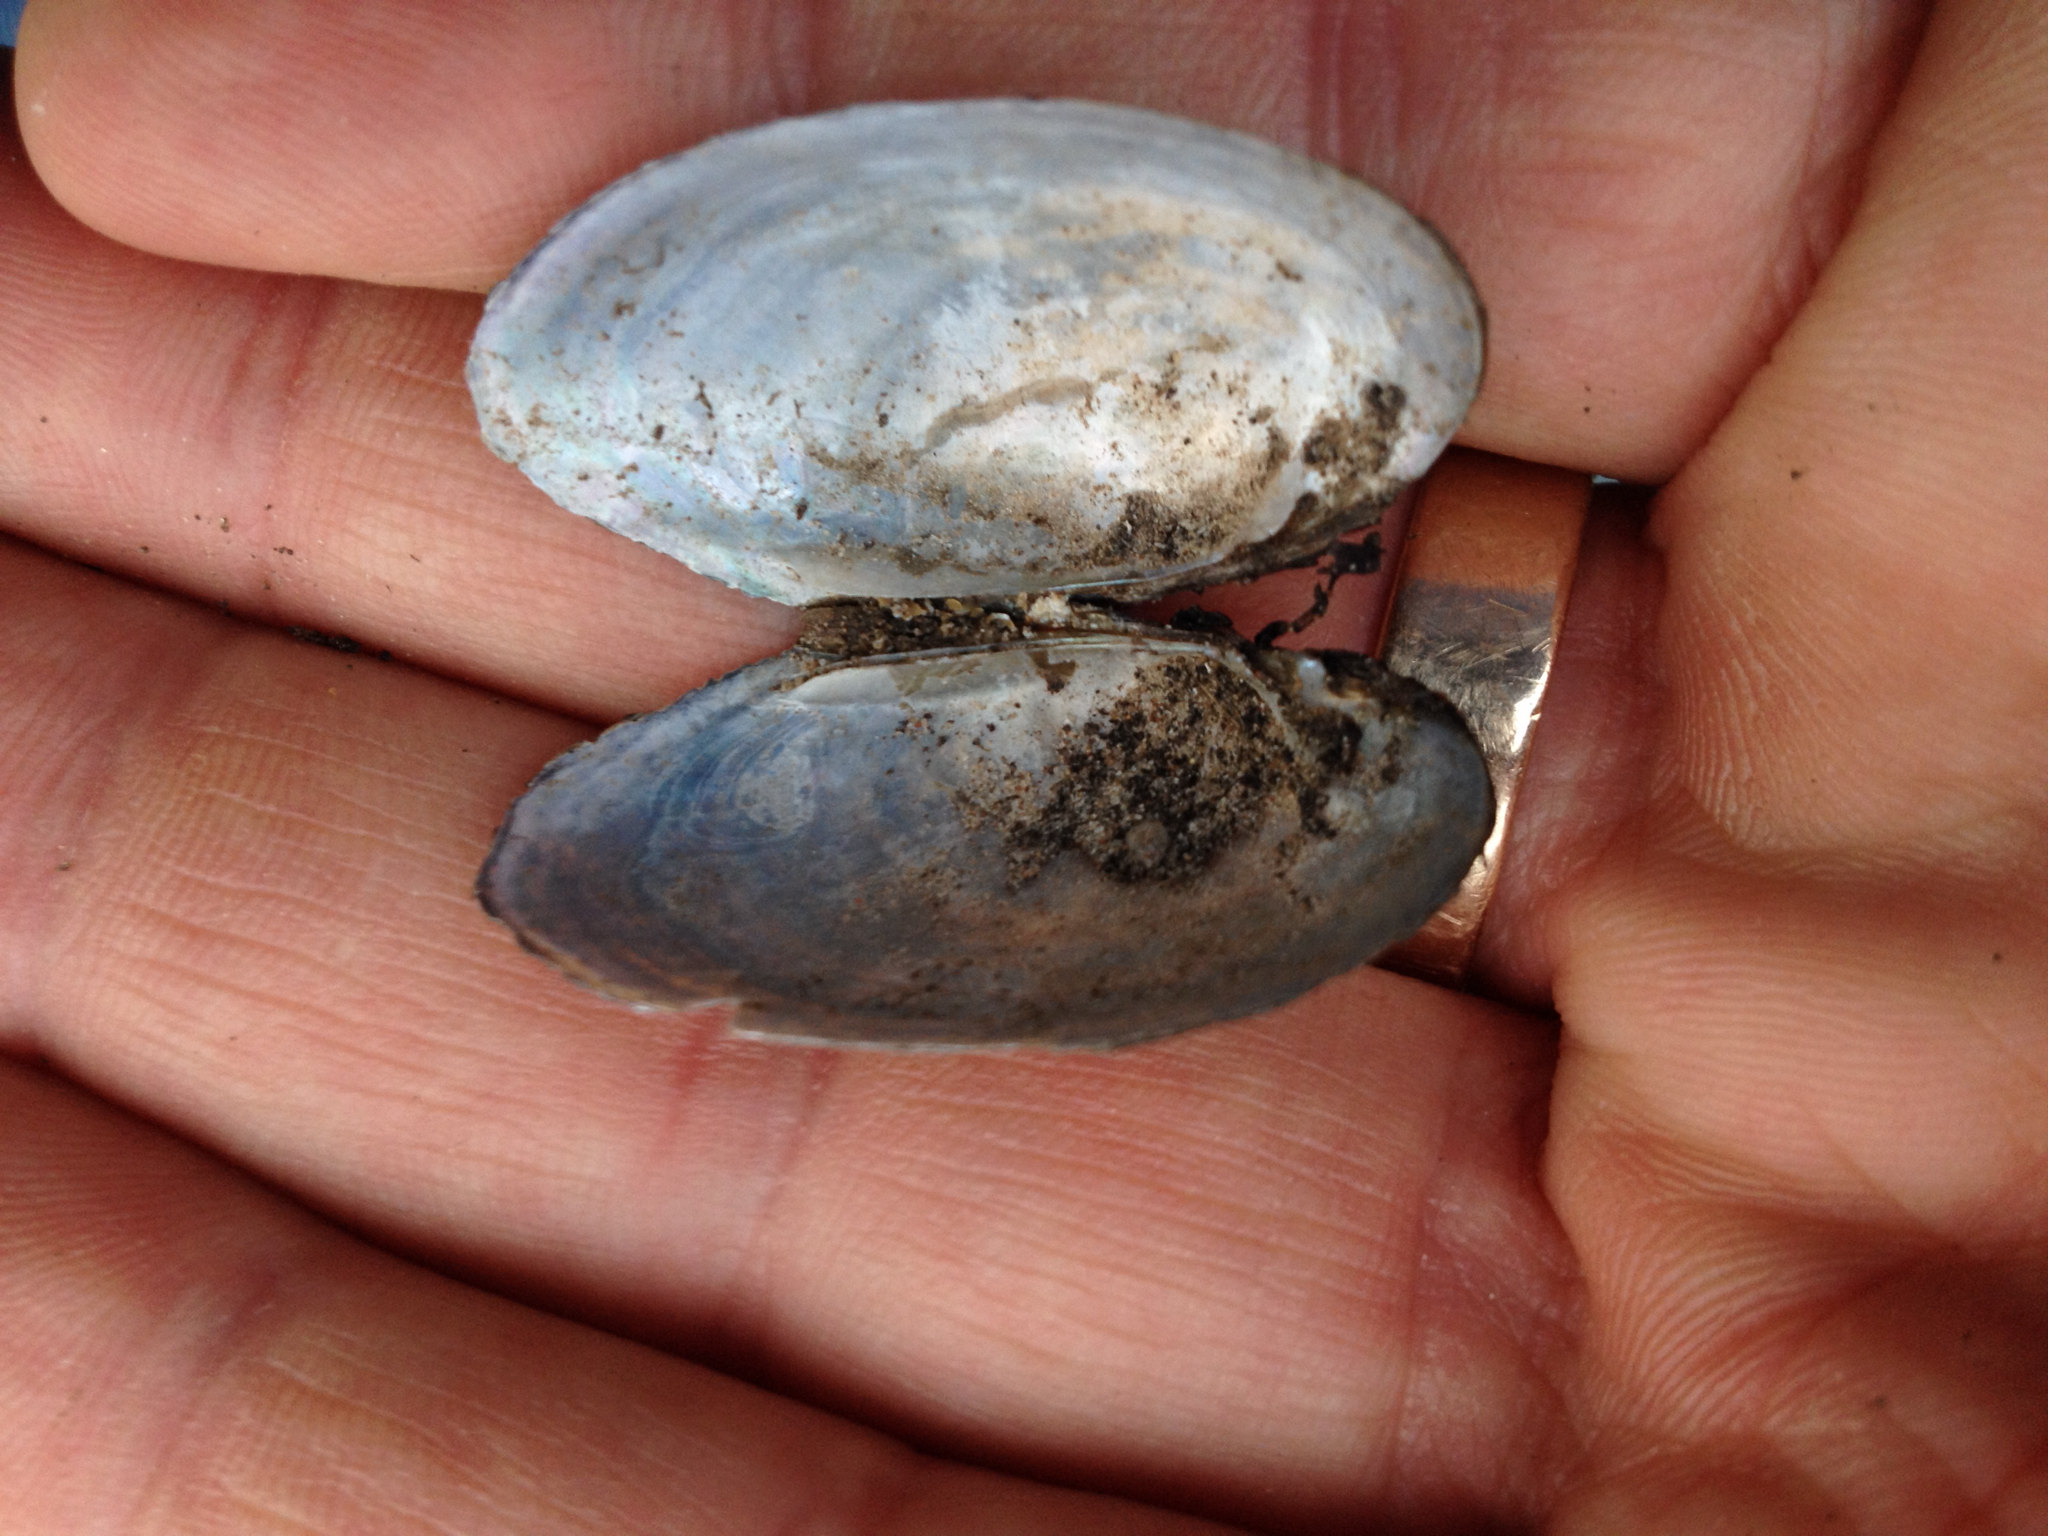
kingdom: Animalia
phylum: Mollusca
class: Bivalvia
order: Unionida
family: Unionidae
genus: Toxolasma
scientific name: Toxolasma texasiense
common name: Texas lilliput
